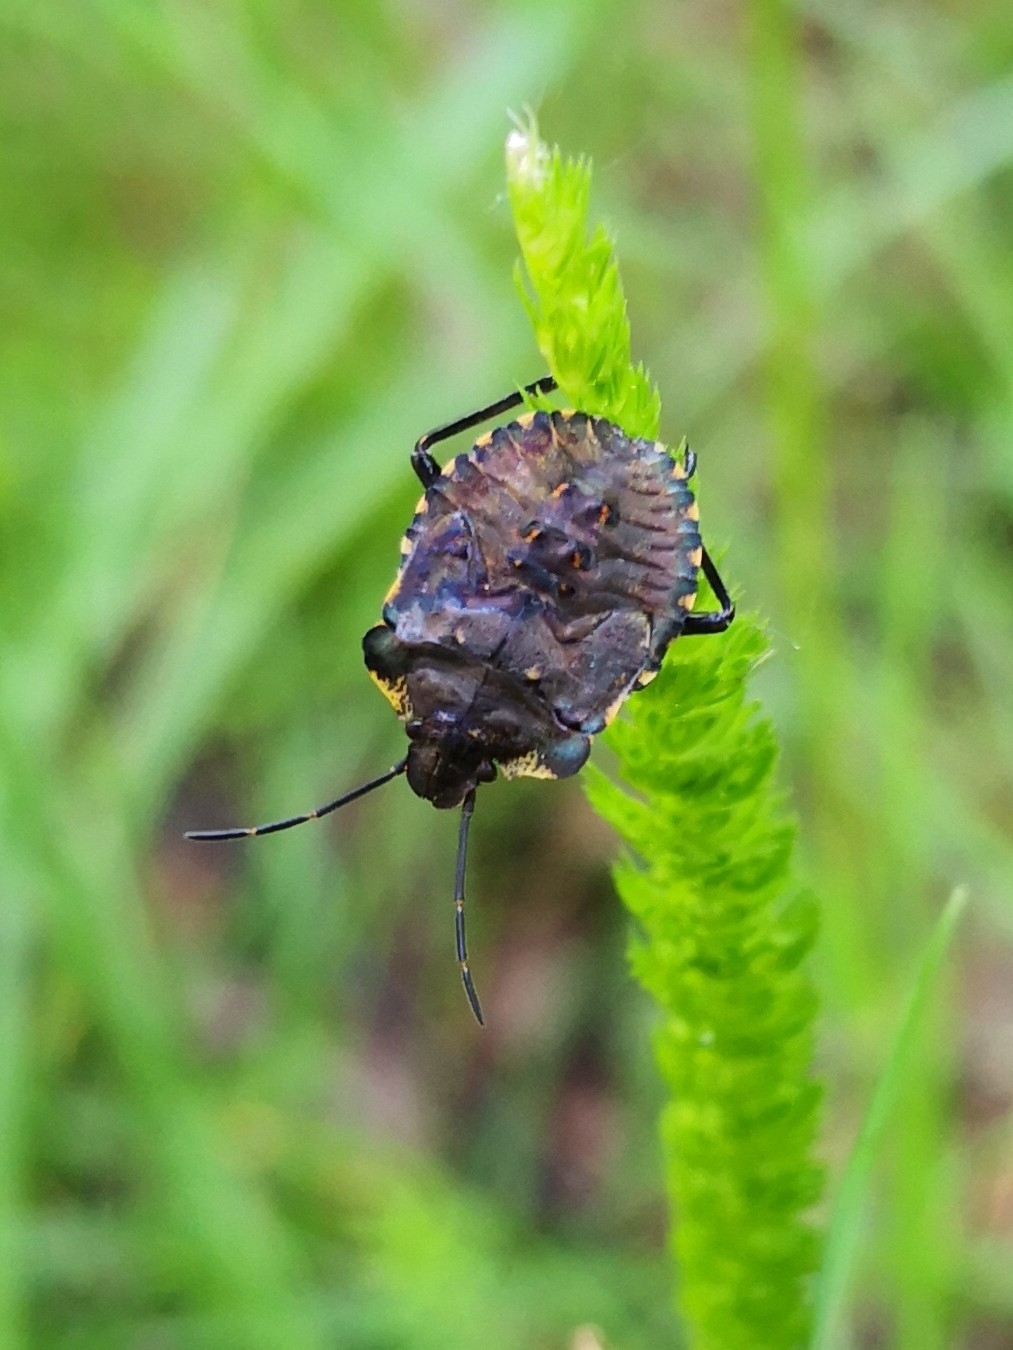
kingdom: Animalia
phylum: Arthropoda
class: Insecta
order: Hemiptera
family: Pentatomidae
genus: Pentatoma
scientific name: Pentatoma rufipes
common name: Forest bug
